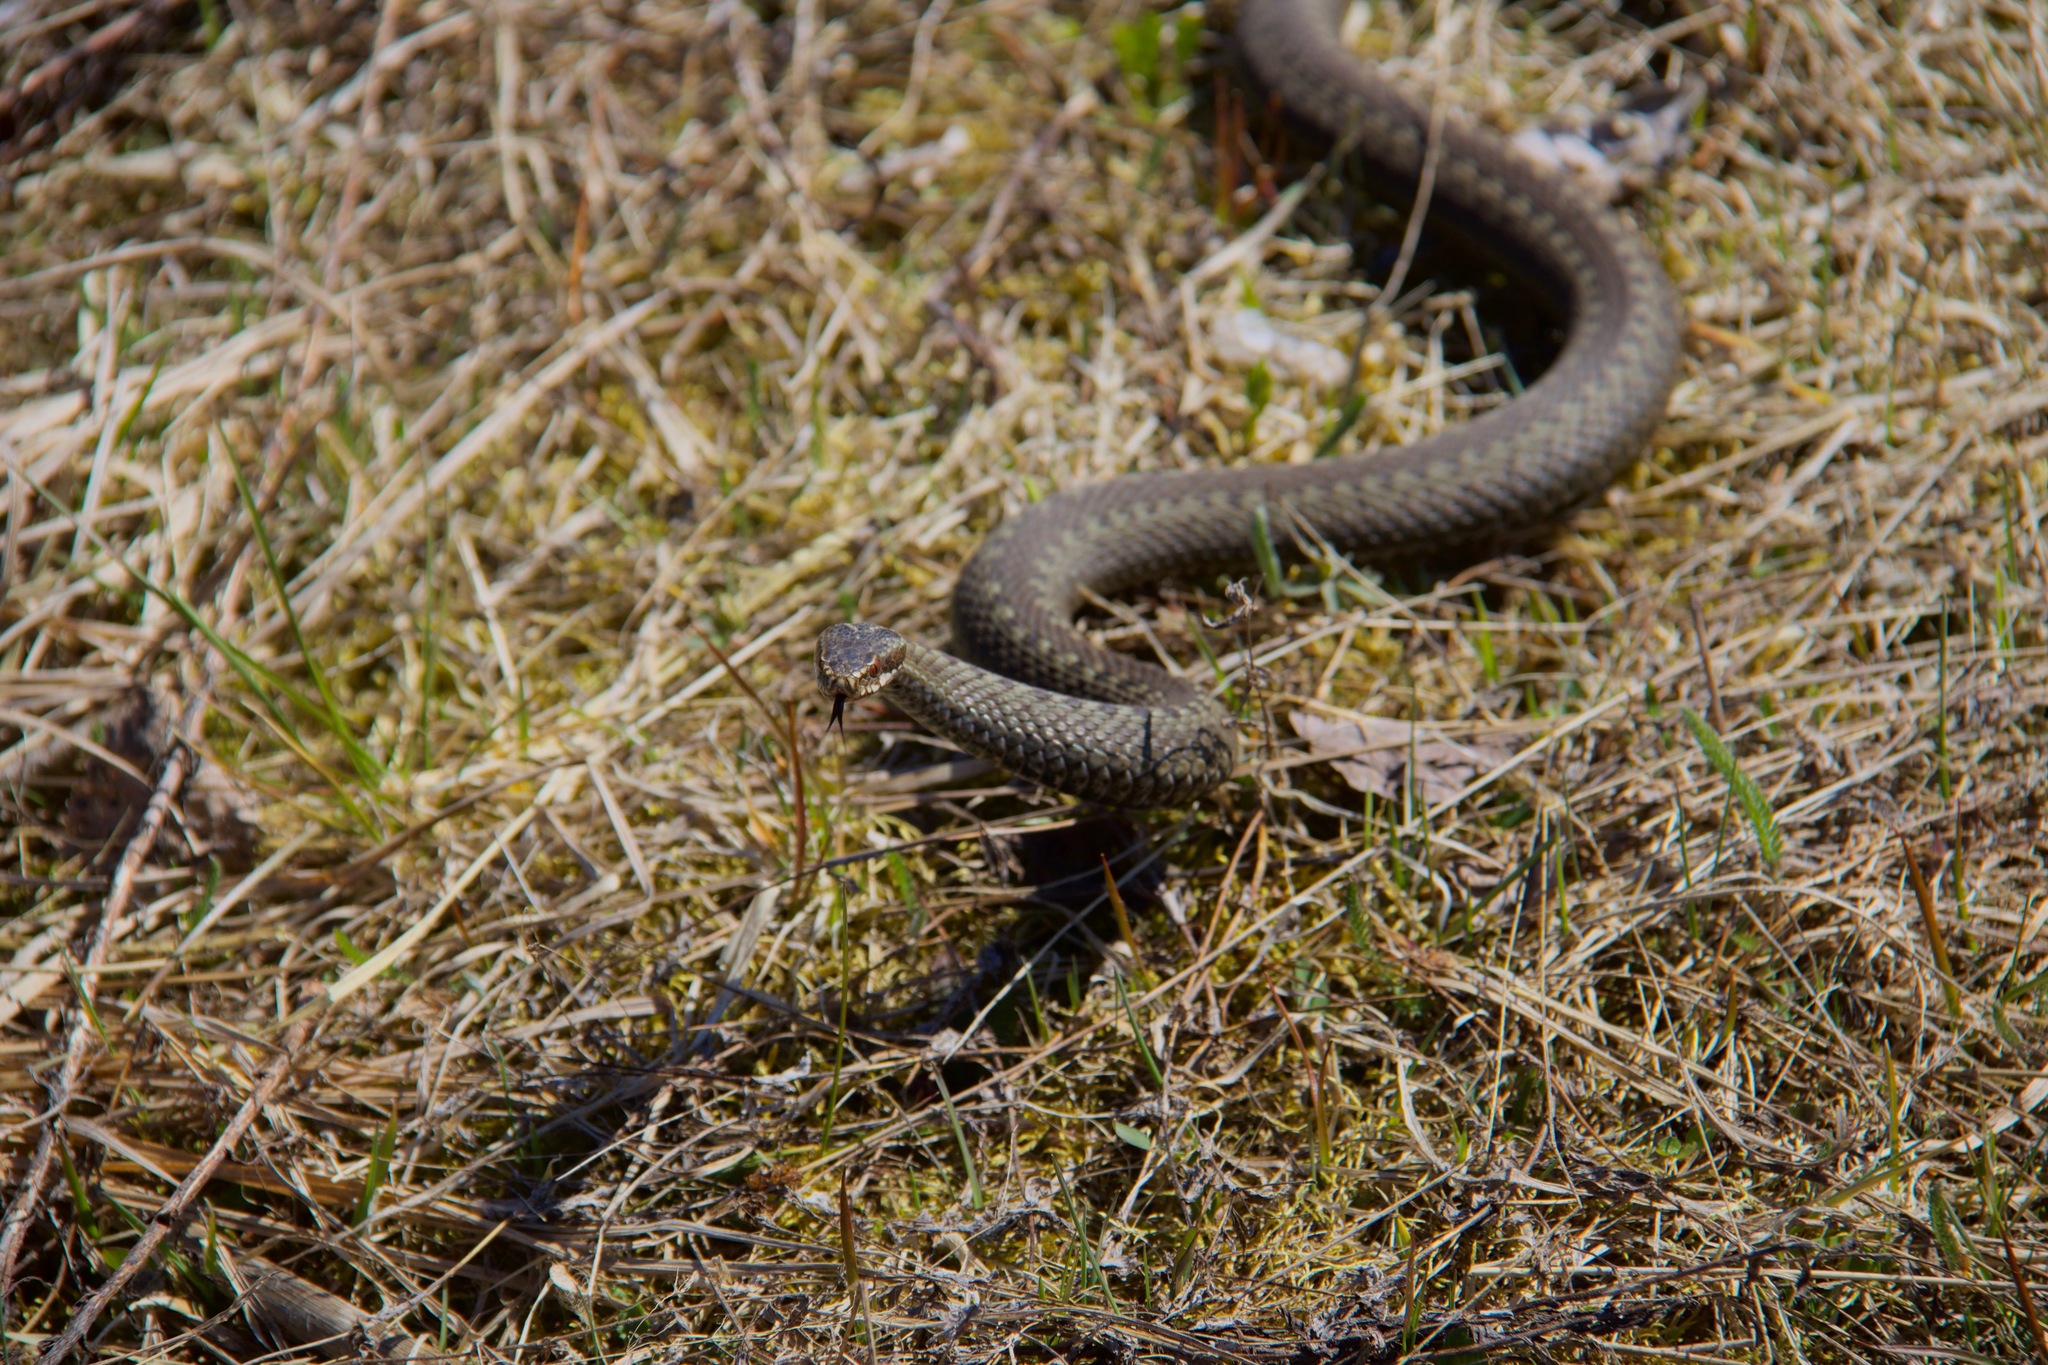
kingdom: Animalia
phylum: Chordata
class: Squamata
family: Viperidae
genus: Vipera
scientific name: Vipera berus
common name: Adder
